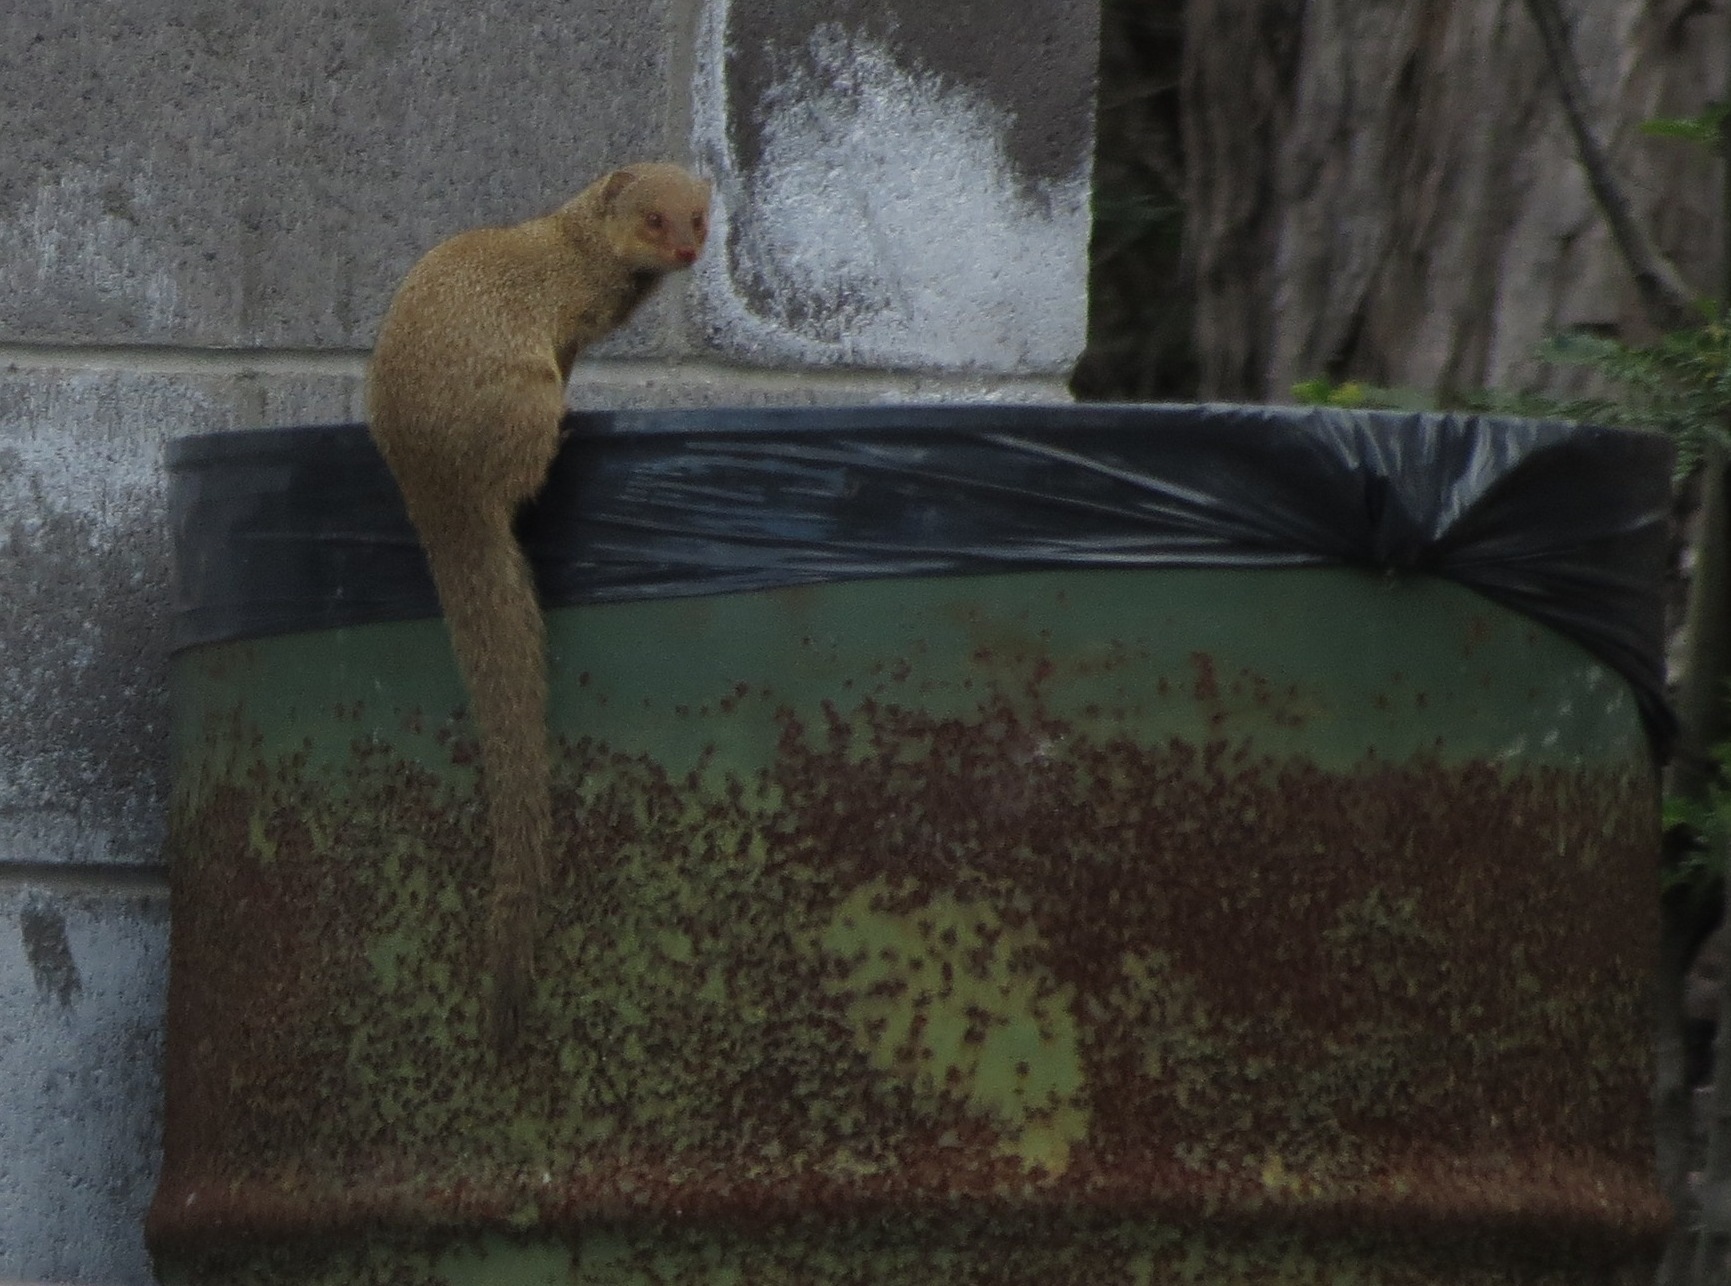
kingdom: Animalia
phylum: Chordata
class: Mammalia
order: Carnivora
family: Herpestidae
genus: Herpestes
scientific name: Herpestes javanicus
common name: Small asian mongoose
